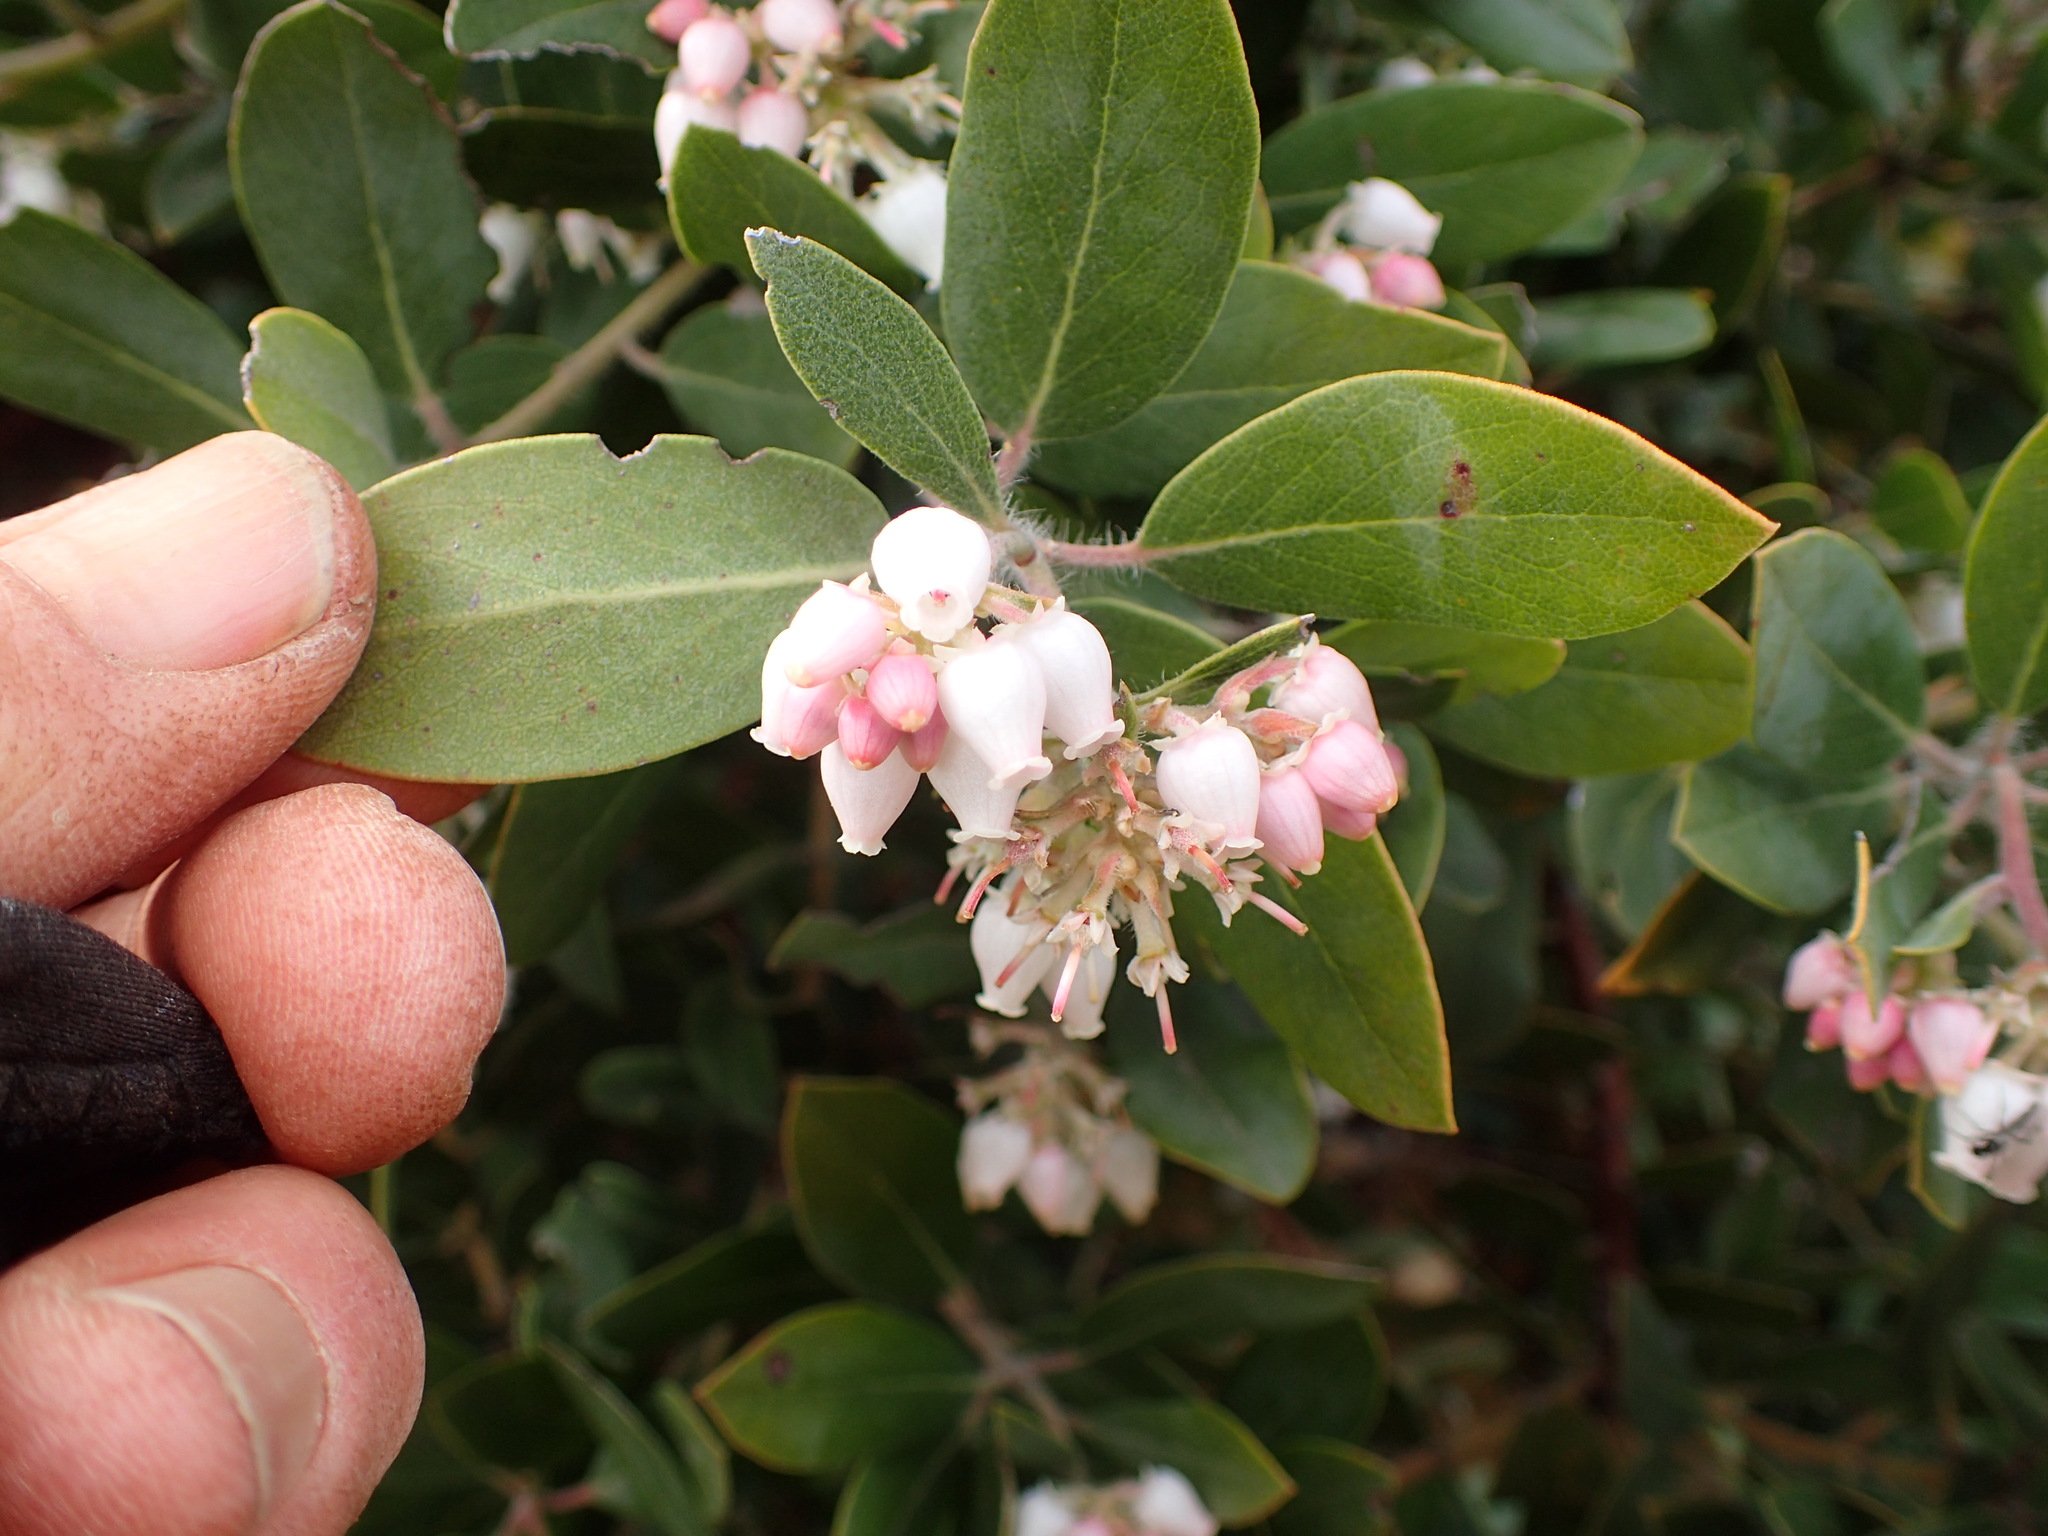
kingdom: Plantae
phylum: Tracheophyta
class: Magnoliopsida
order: Ericales
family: Ericaceae
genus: Arctostaphylos
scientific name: Arctostaphylos crustacea
